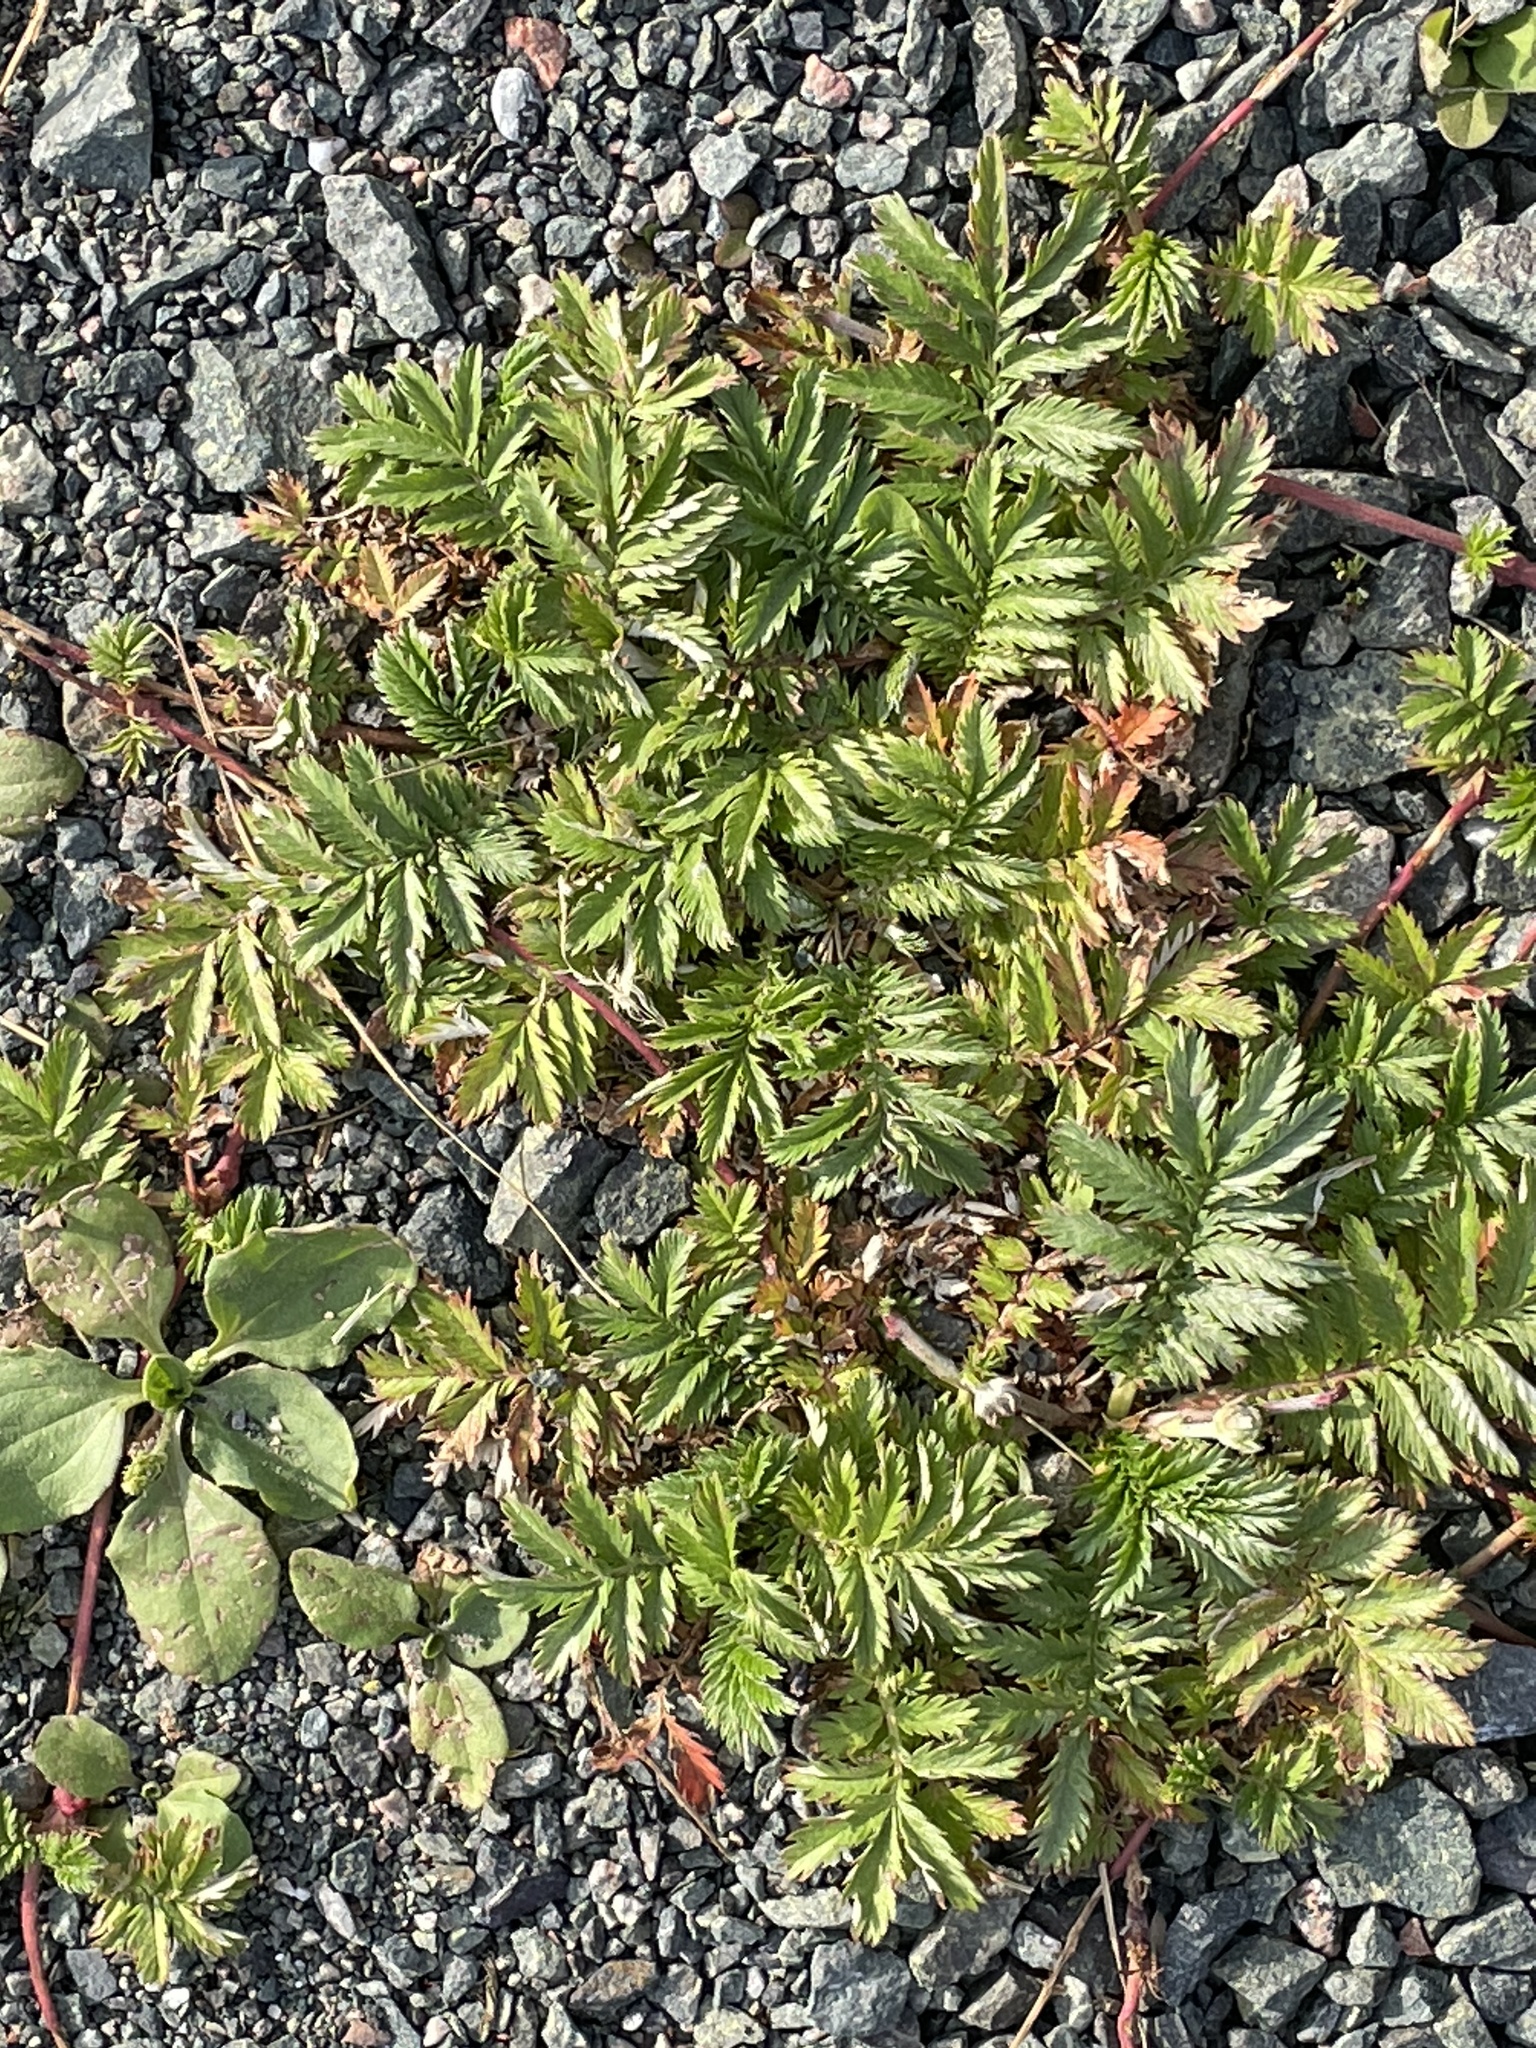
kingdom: Plantae
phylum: Tracheophyta
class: Magnoliopsida
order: Rosales
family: Rosaceae
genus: Argentina
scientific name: Argentina anserina
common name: Common silverweed
